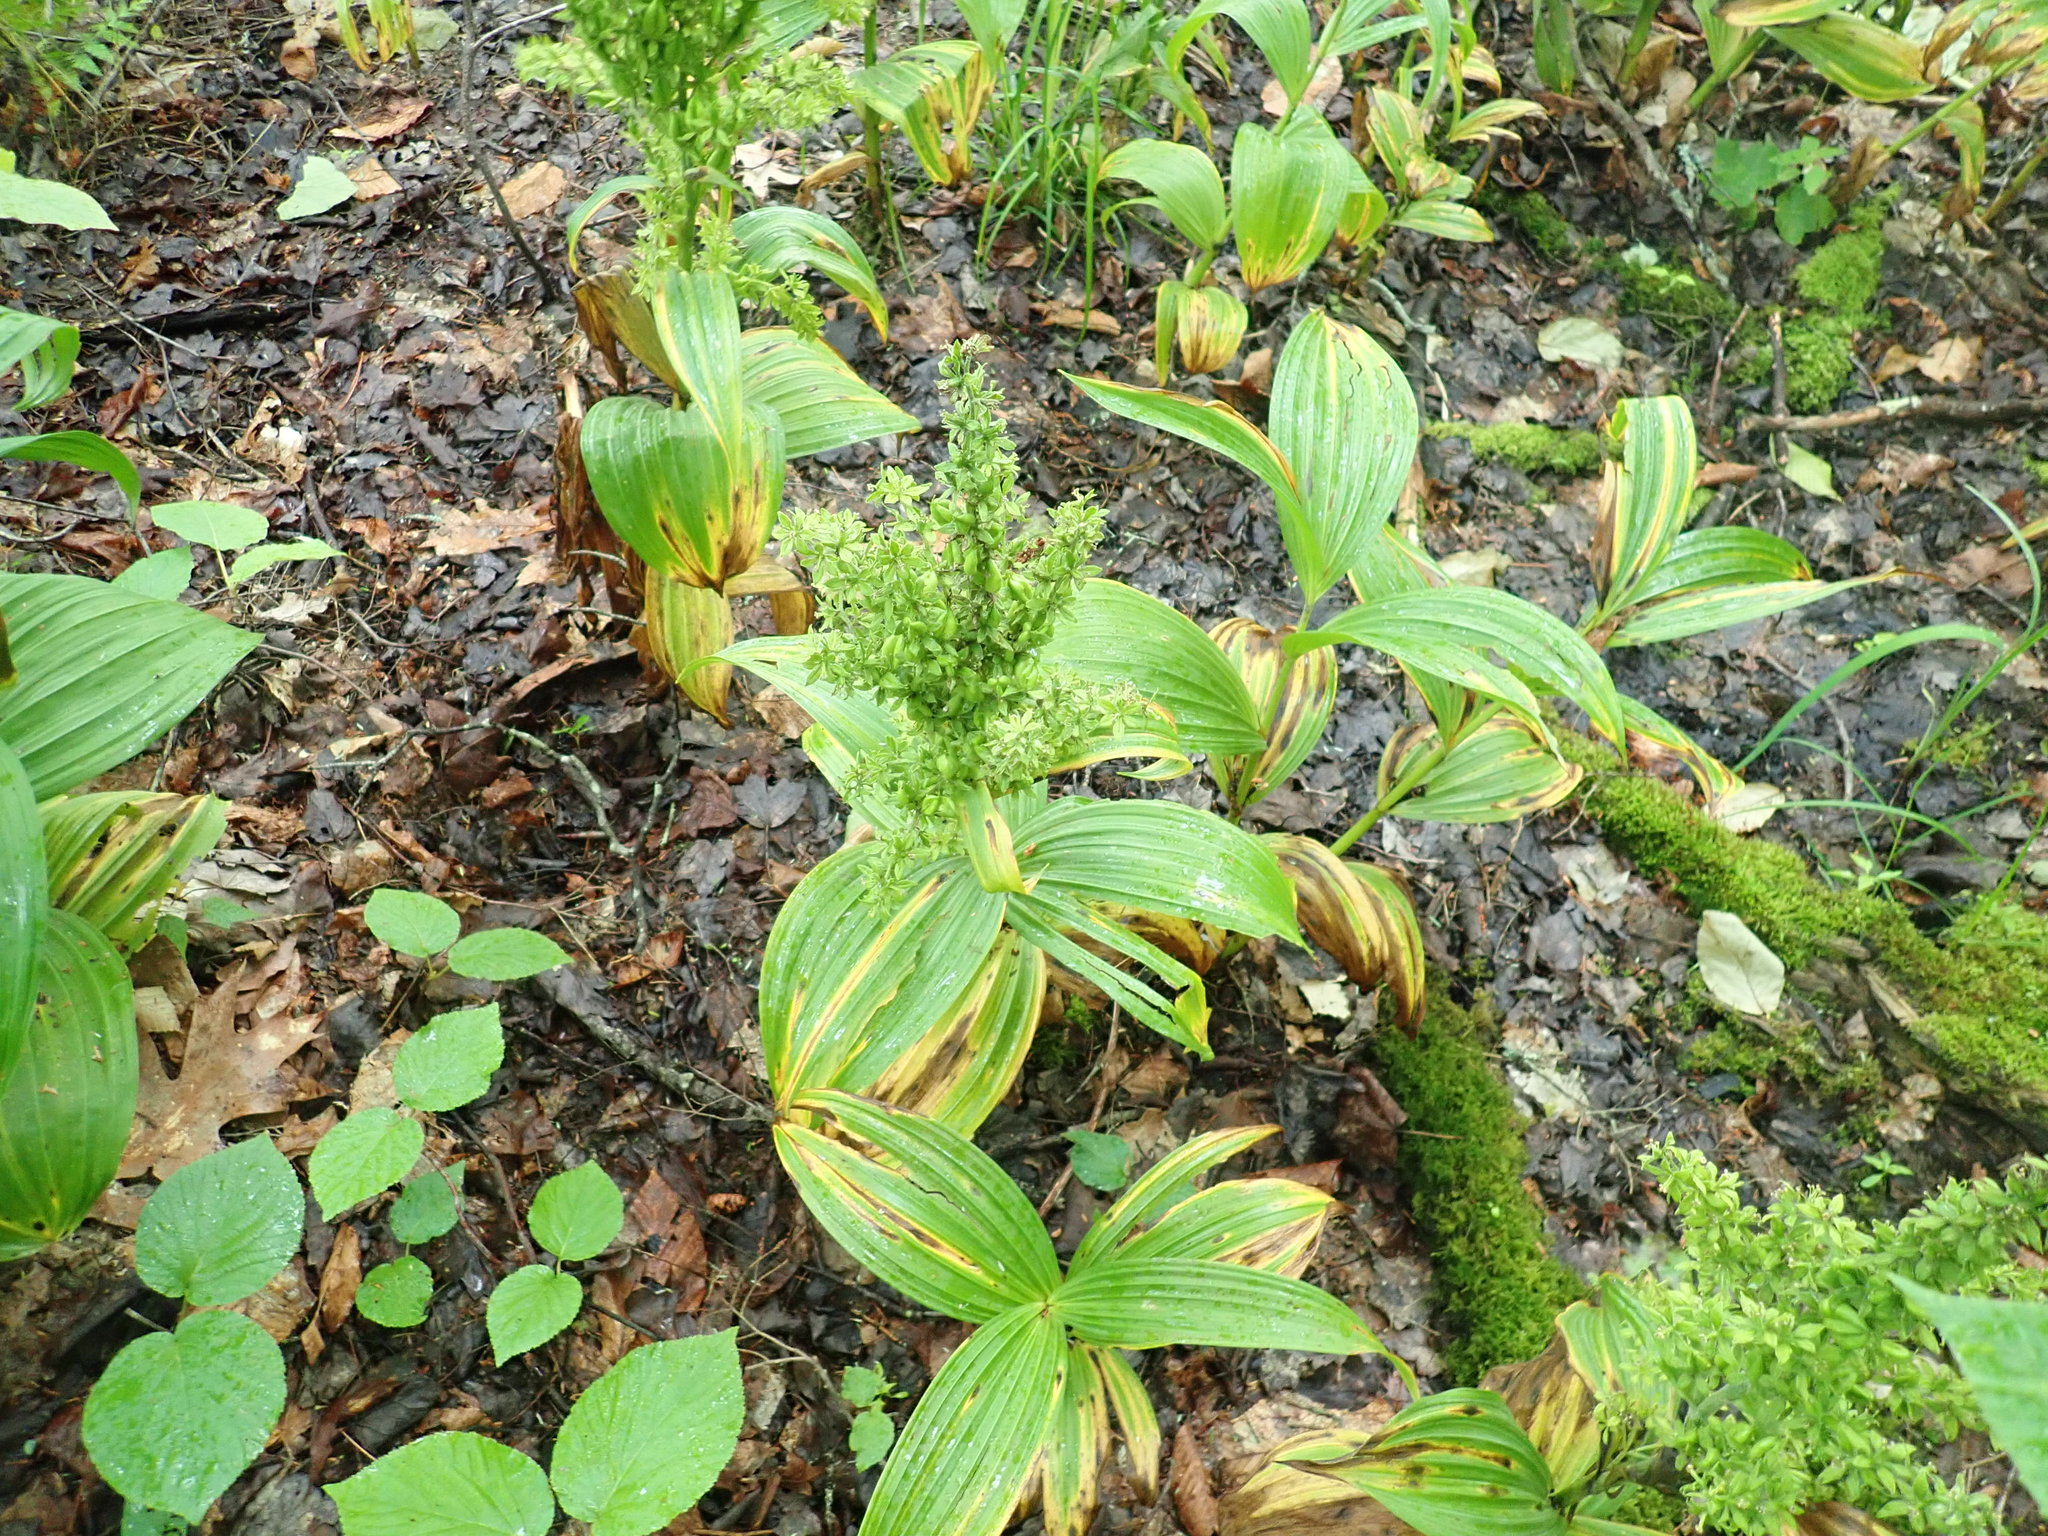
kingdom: Plantae
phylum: Tracheophyta
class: Liliopsida
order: Liliales
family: Melanthiaceae
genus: Veratrum
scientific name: Veratrum viride
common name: American false hellebore
